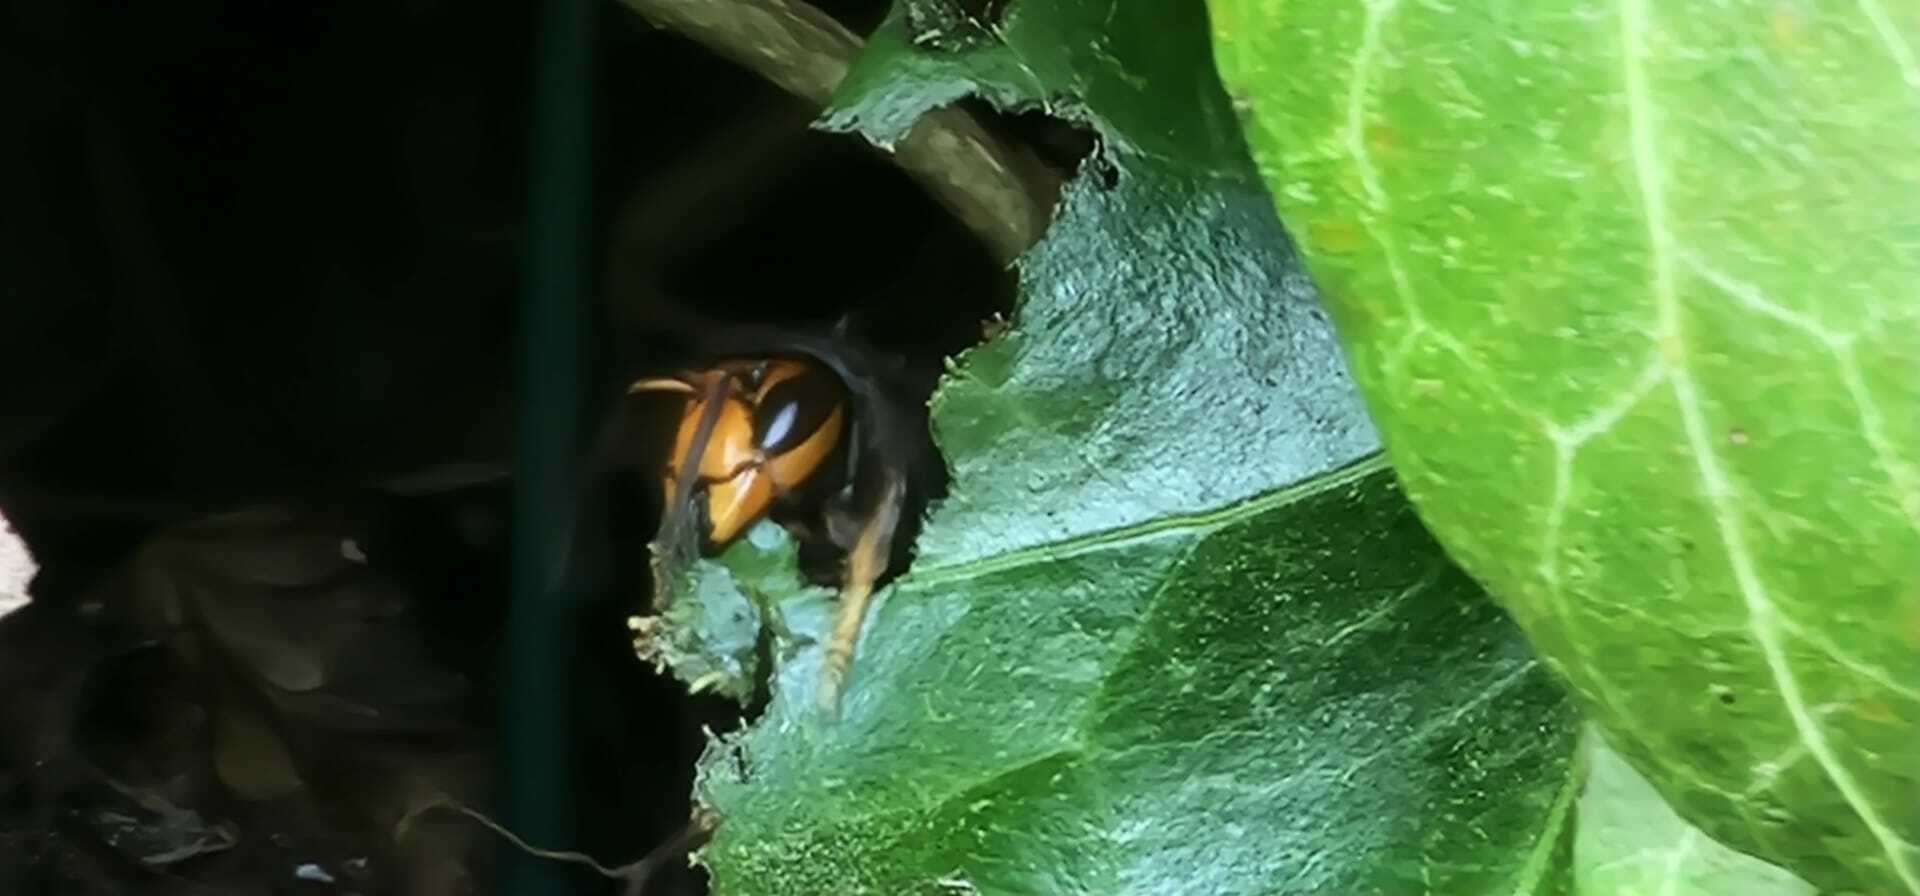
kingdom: Animalia
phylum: Arthropoda
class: Insecta
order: Hymenoptera
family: Vespidae
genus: Vespa
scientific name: Vespa velutina
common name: Asian hornet
